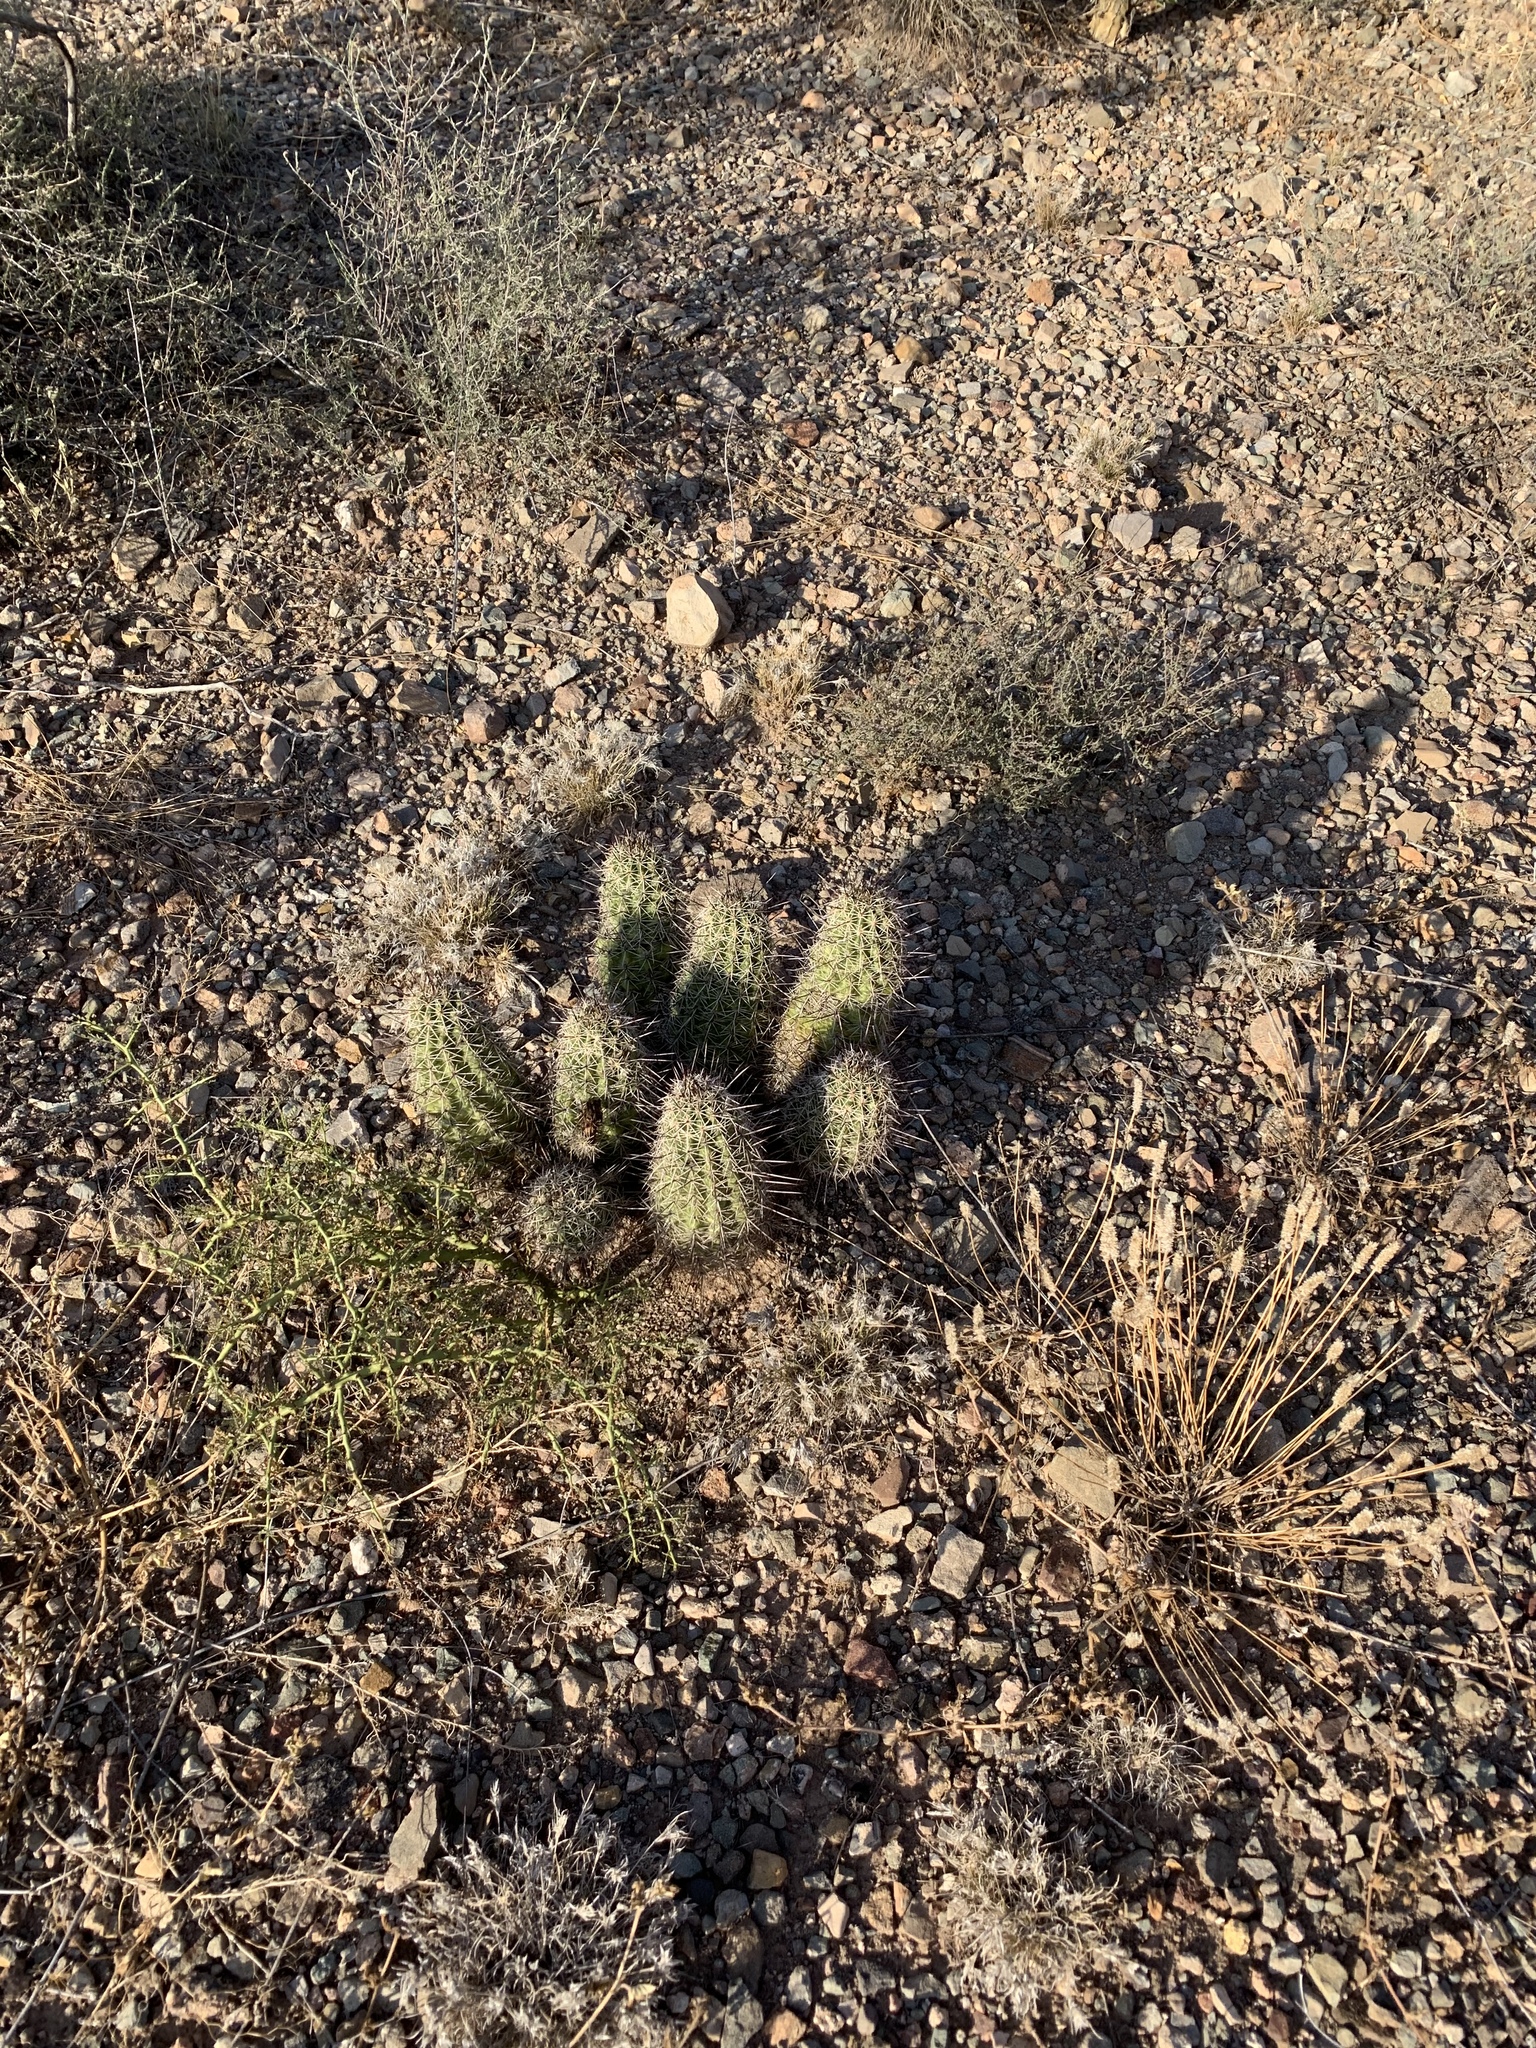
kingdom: Plantae
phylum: Tracheophyta
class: Magnoliopsida
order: Caryophyllales
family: Cactaceae
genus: Echinocereus
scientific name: Echinocereus fasciculatus
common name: Bundle hedgehog
